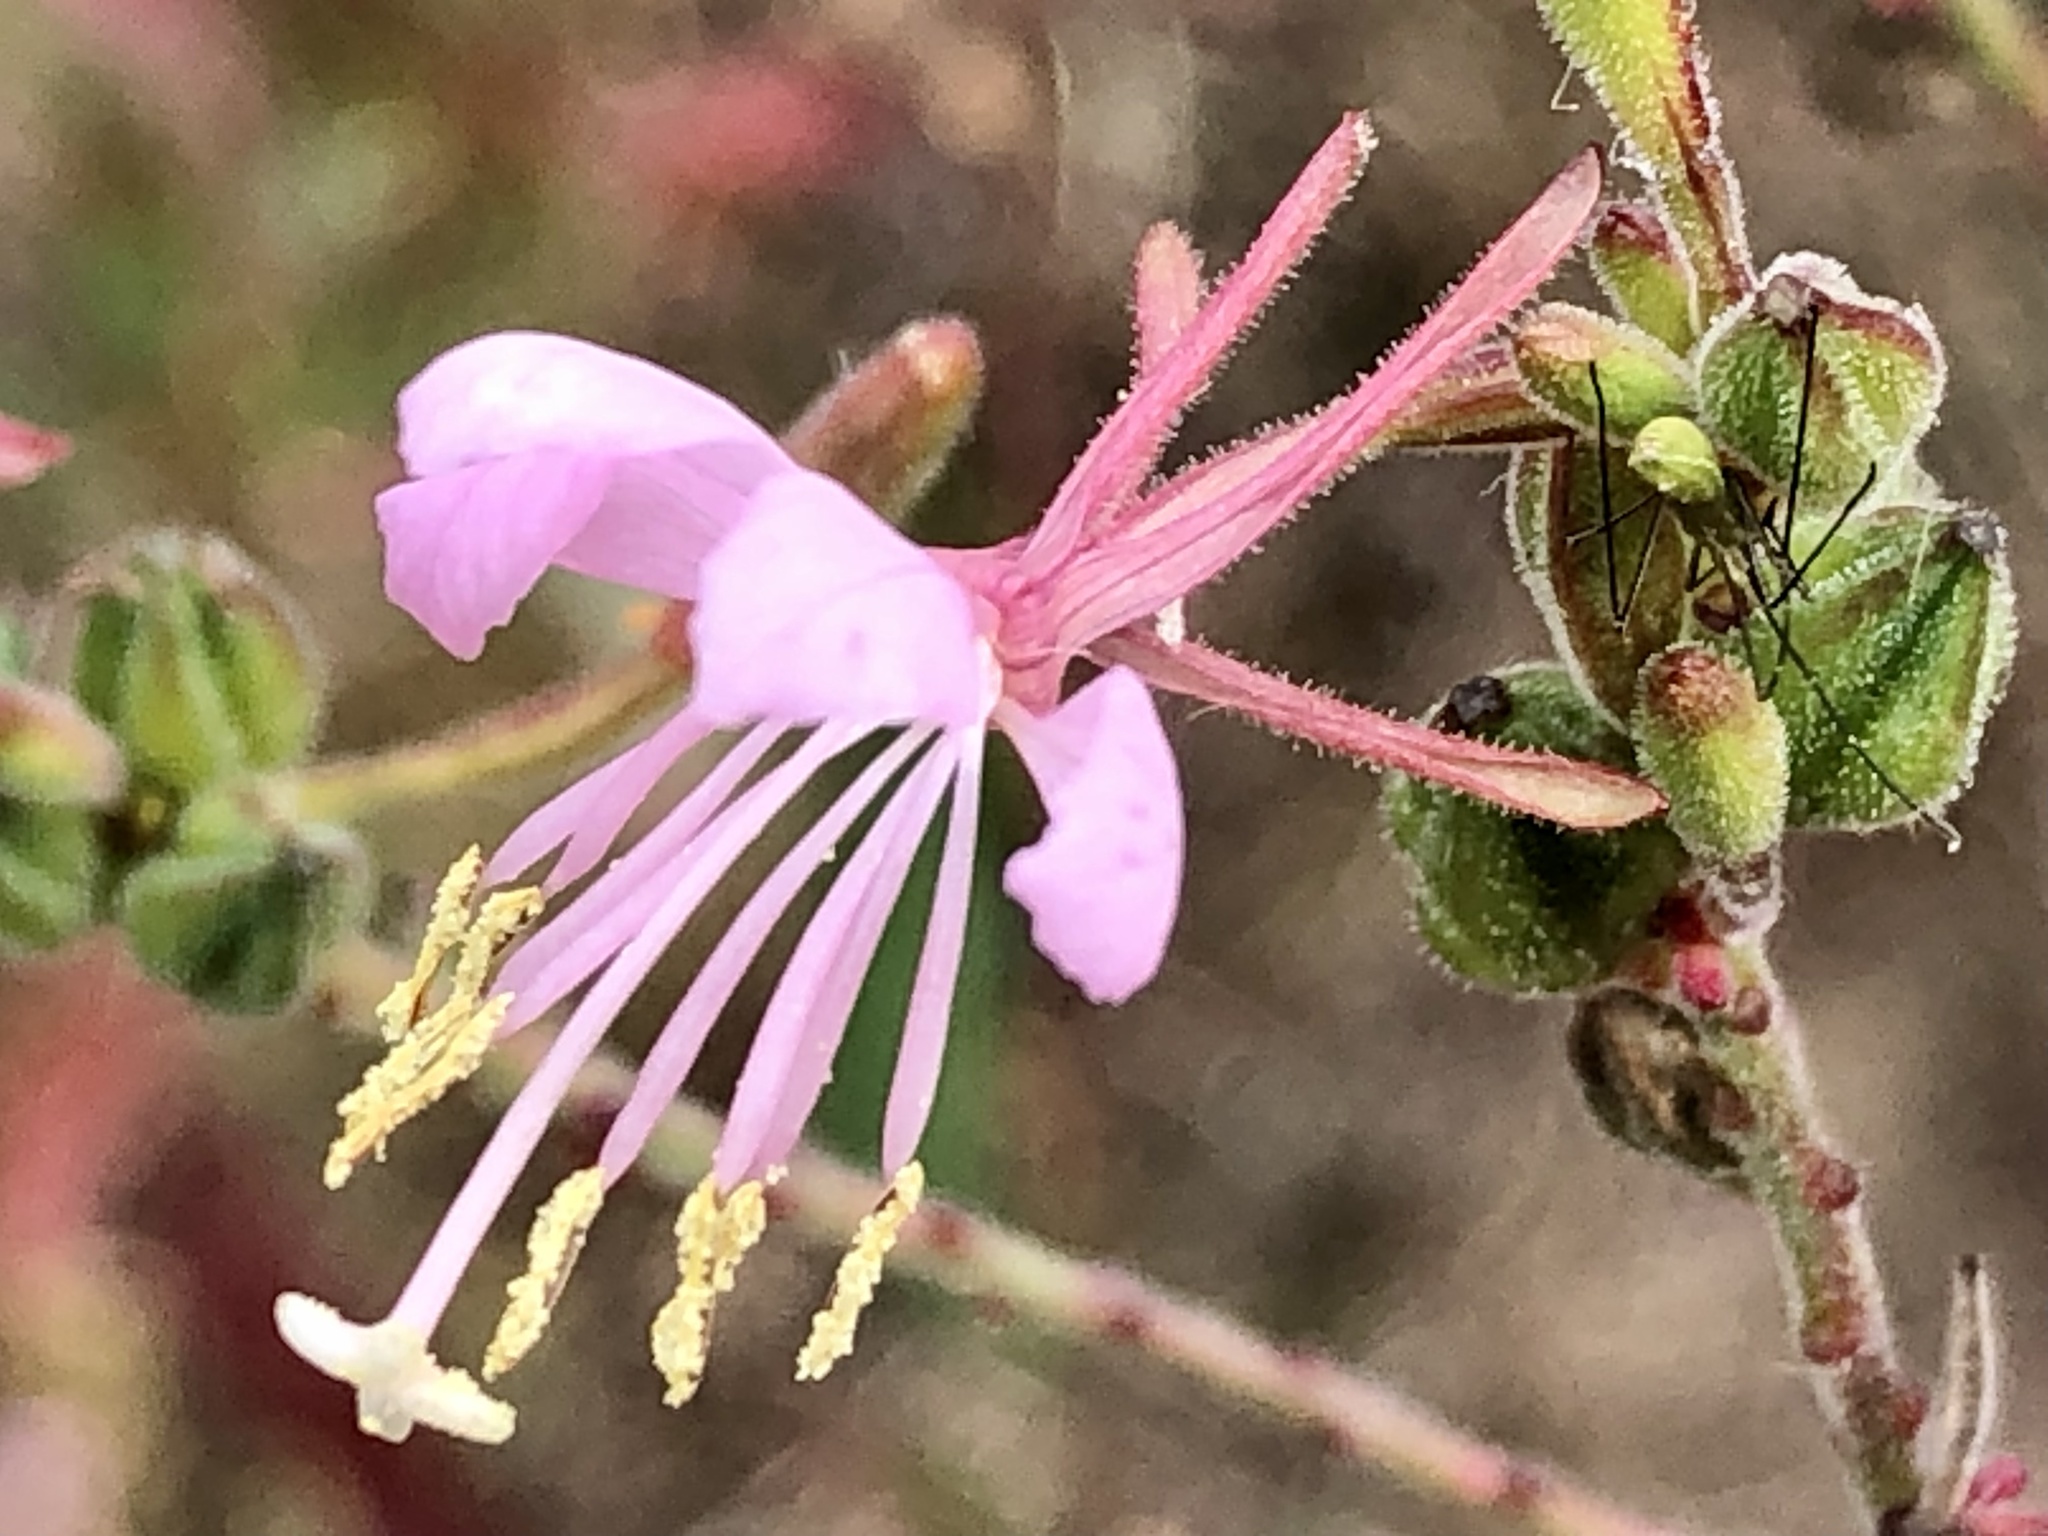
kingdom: Plantae
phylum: Tracheophyta
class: Magnoliopsida
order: Myrtales
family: Onagraceae
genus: Oenothera
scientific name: Oenothera gaura
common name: Biennial beeblossom
